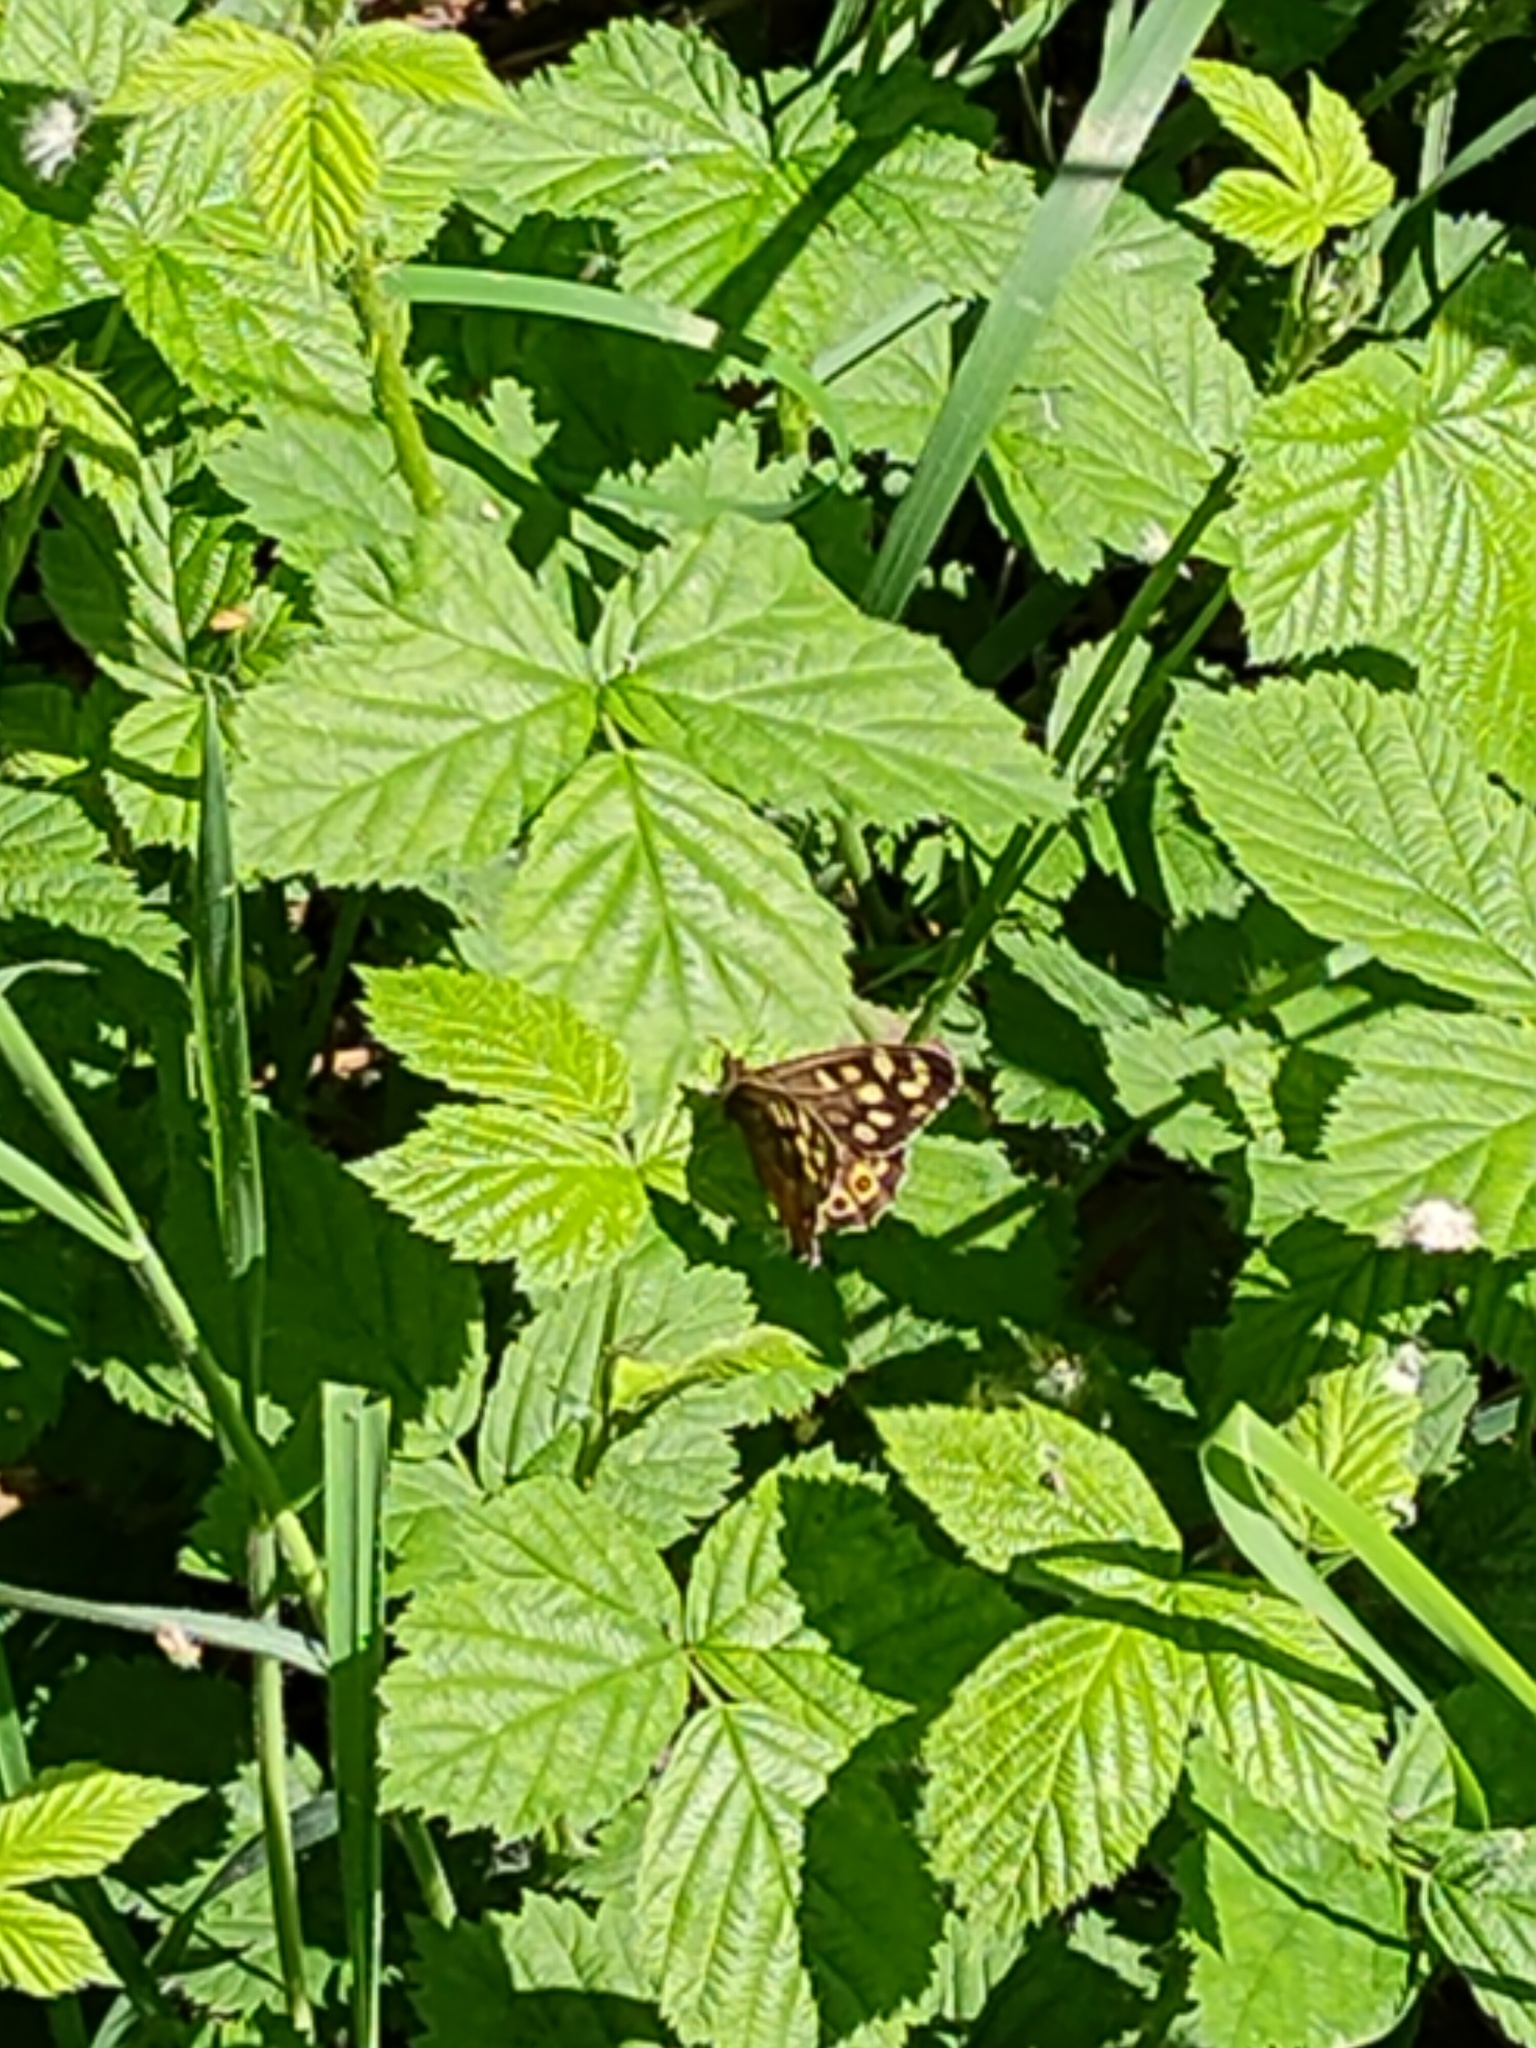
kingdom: Animalia
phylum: Arthropoda
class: Insecta
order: Lepidoptera
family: Nymphalidae
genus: Pararge
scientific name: Pararge aegeria
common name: Speckled wood
